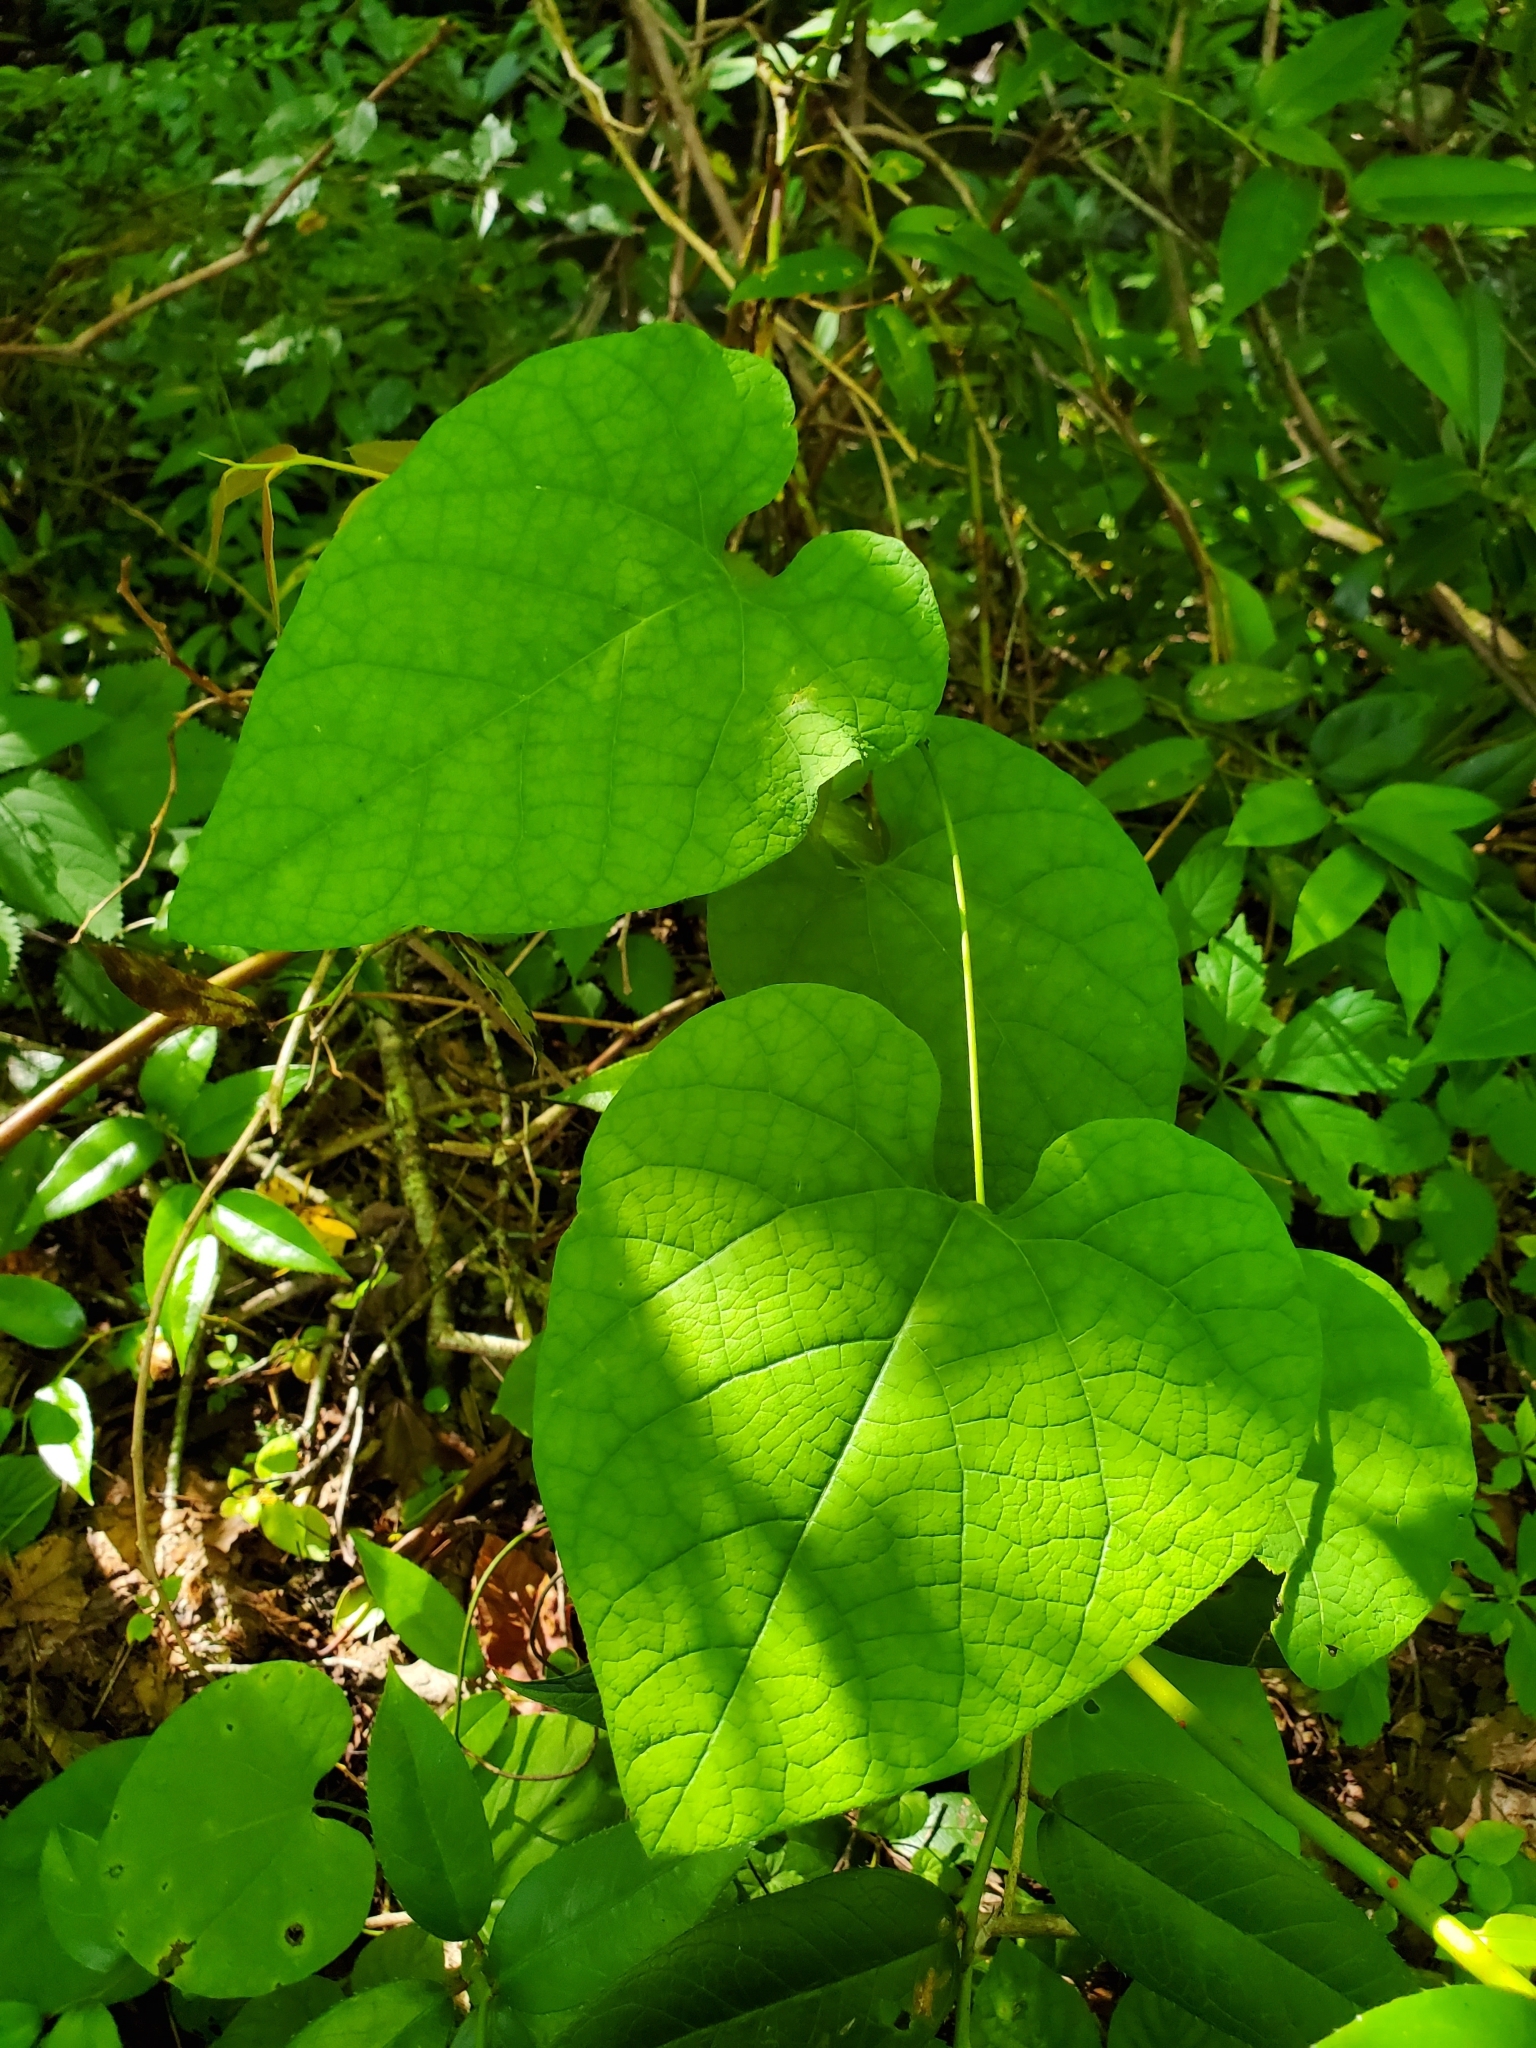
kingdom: Plantae
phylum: Tracheophyta
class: Magnoliopsida
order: Piperales
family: Aristolochiaceae
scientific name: Aristolochiaceae
